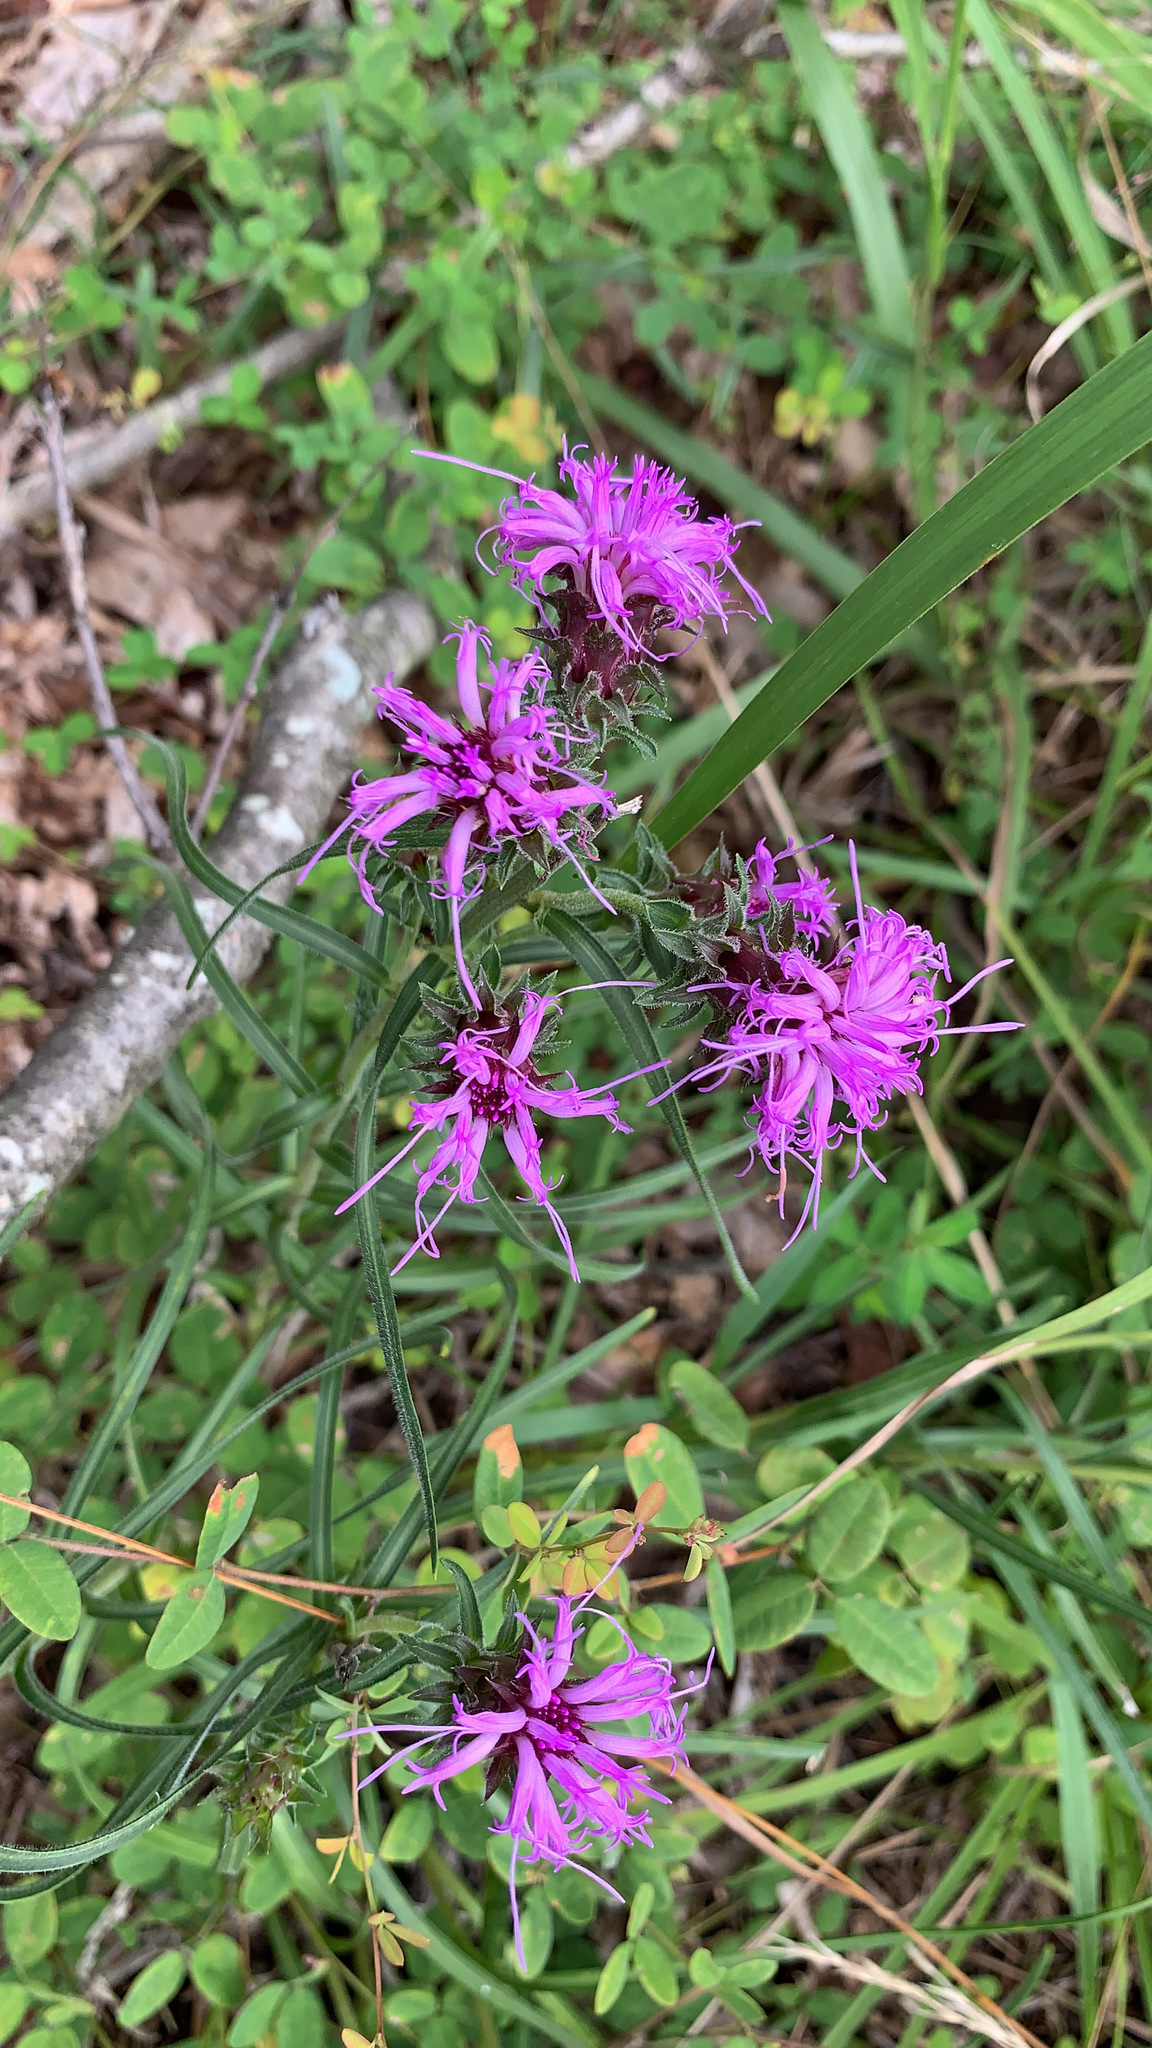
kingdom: Plantae
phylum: Tracheophyta
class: Magnoliopsida
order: Asterales
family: Asteraceae
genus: Liatris
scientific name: Liatris squarrosa
